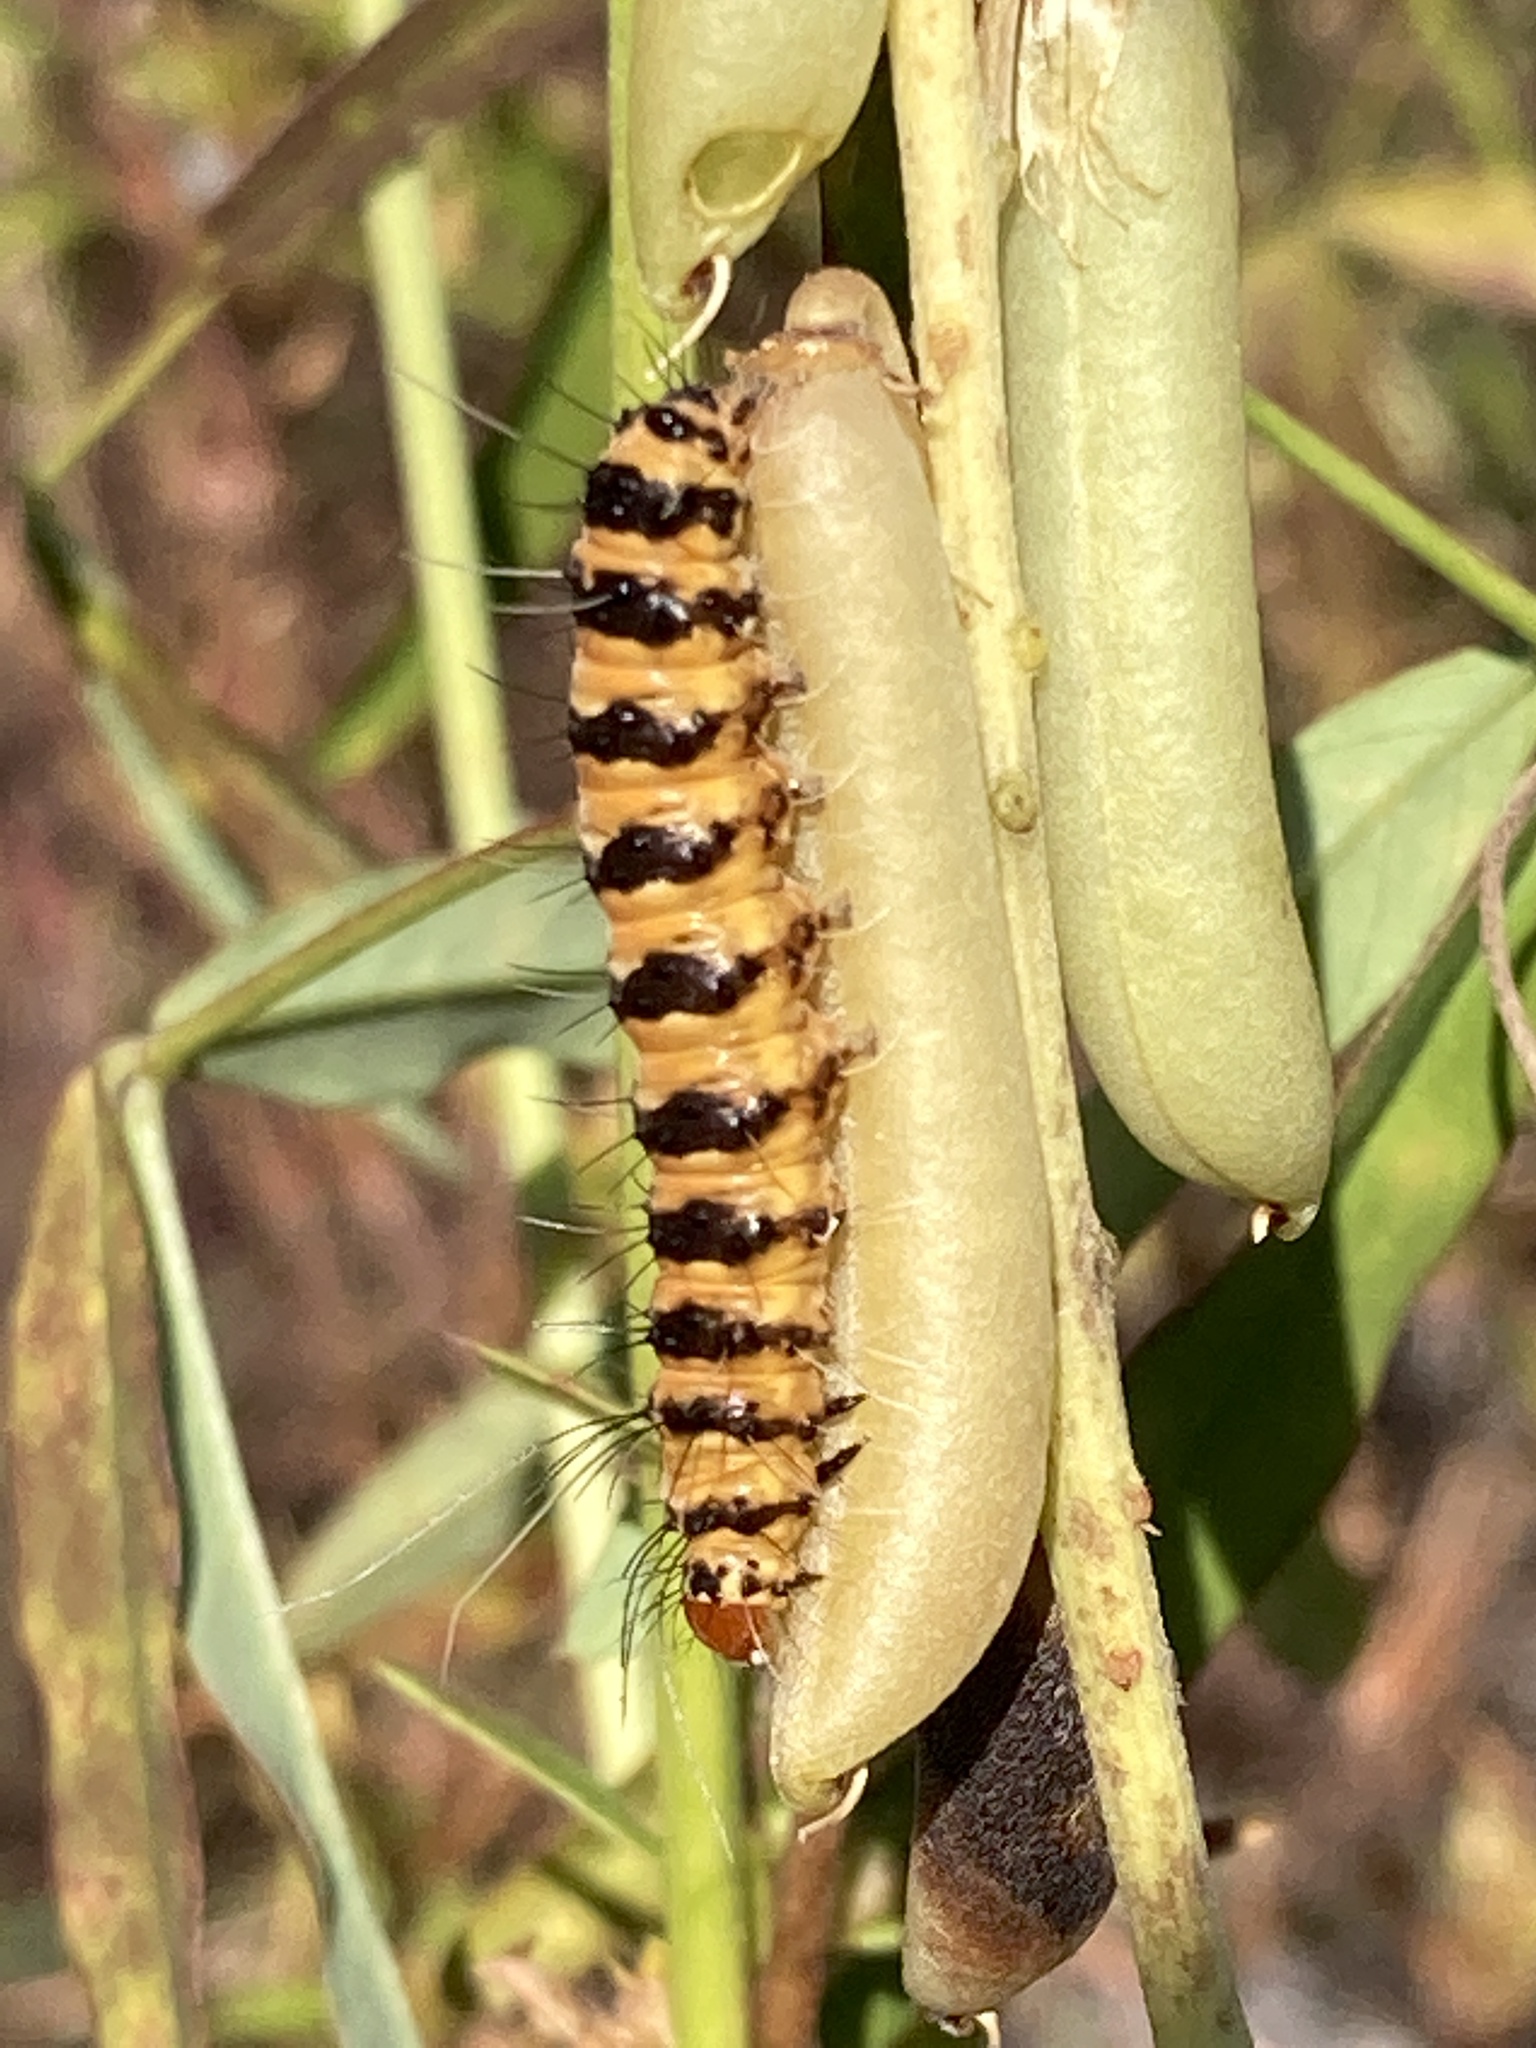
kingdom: Animalia
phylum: Arthropoda
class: Insecta
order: Lepidoptera
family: Erebidae
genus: Utetheisa
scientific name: Utetheisa ornatrix
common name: Beautiful utetheisa
